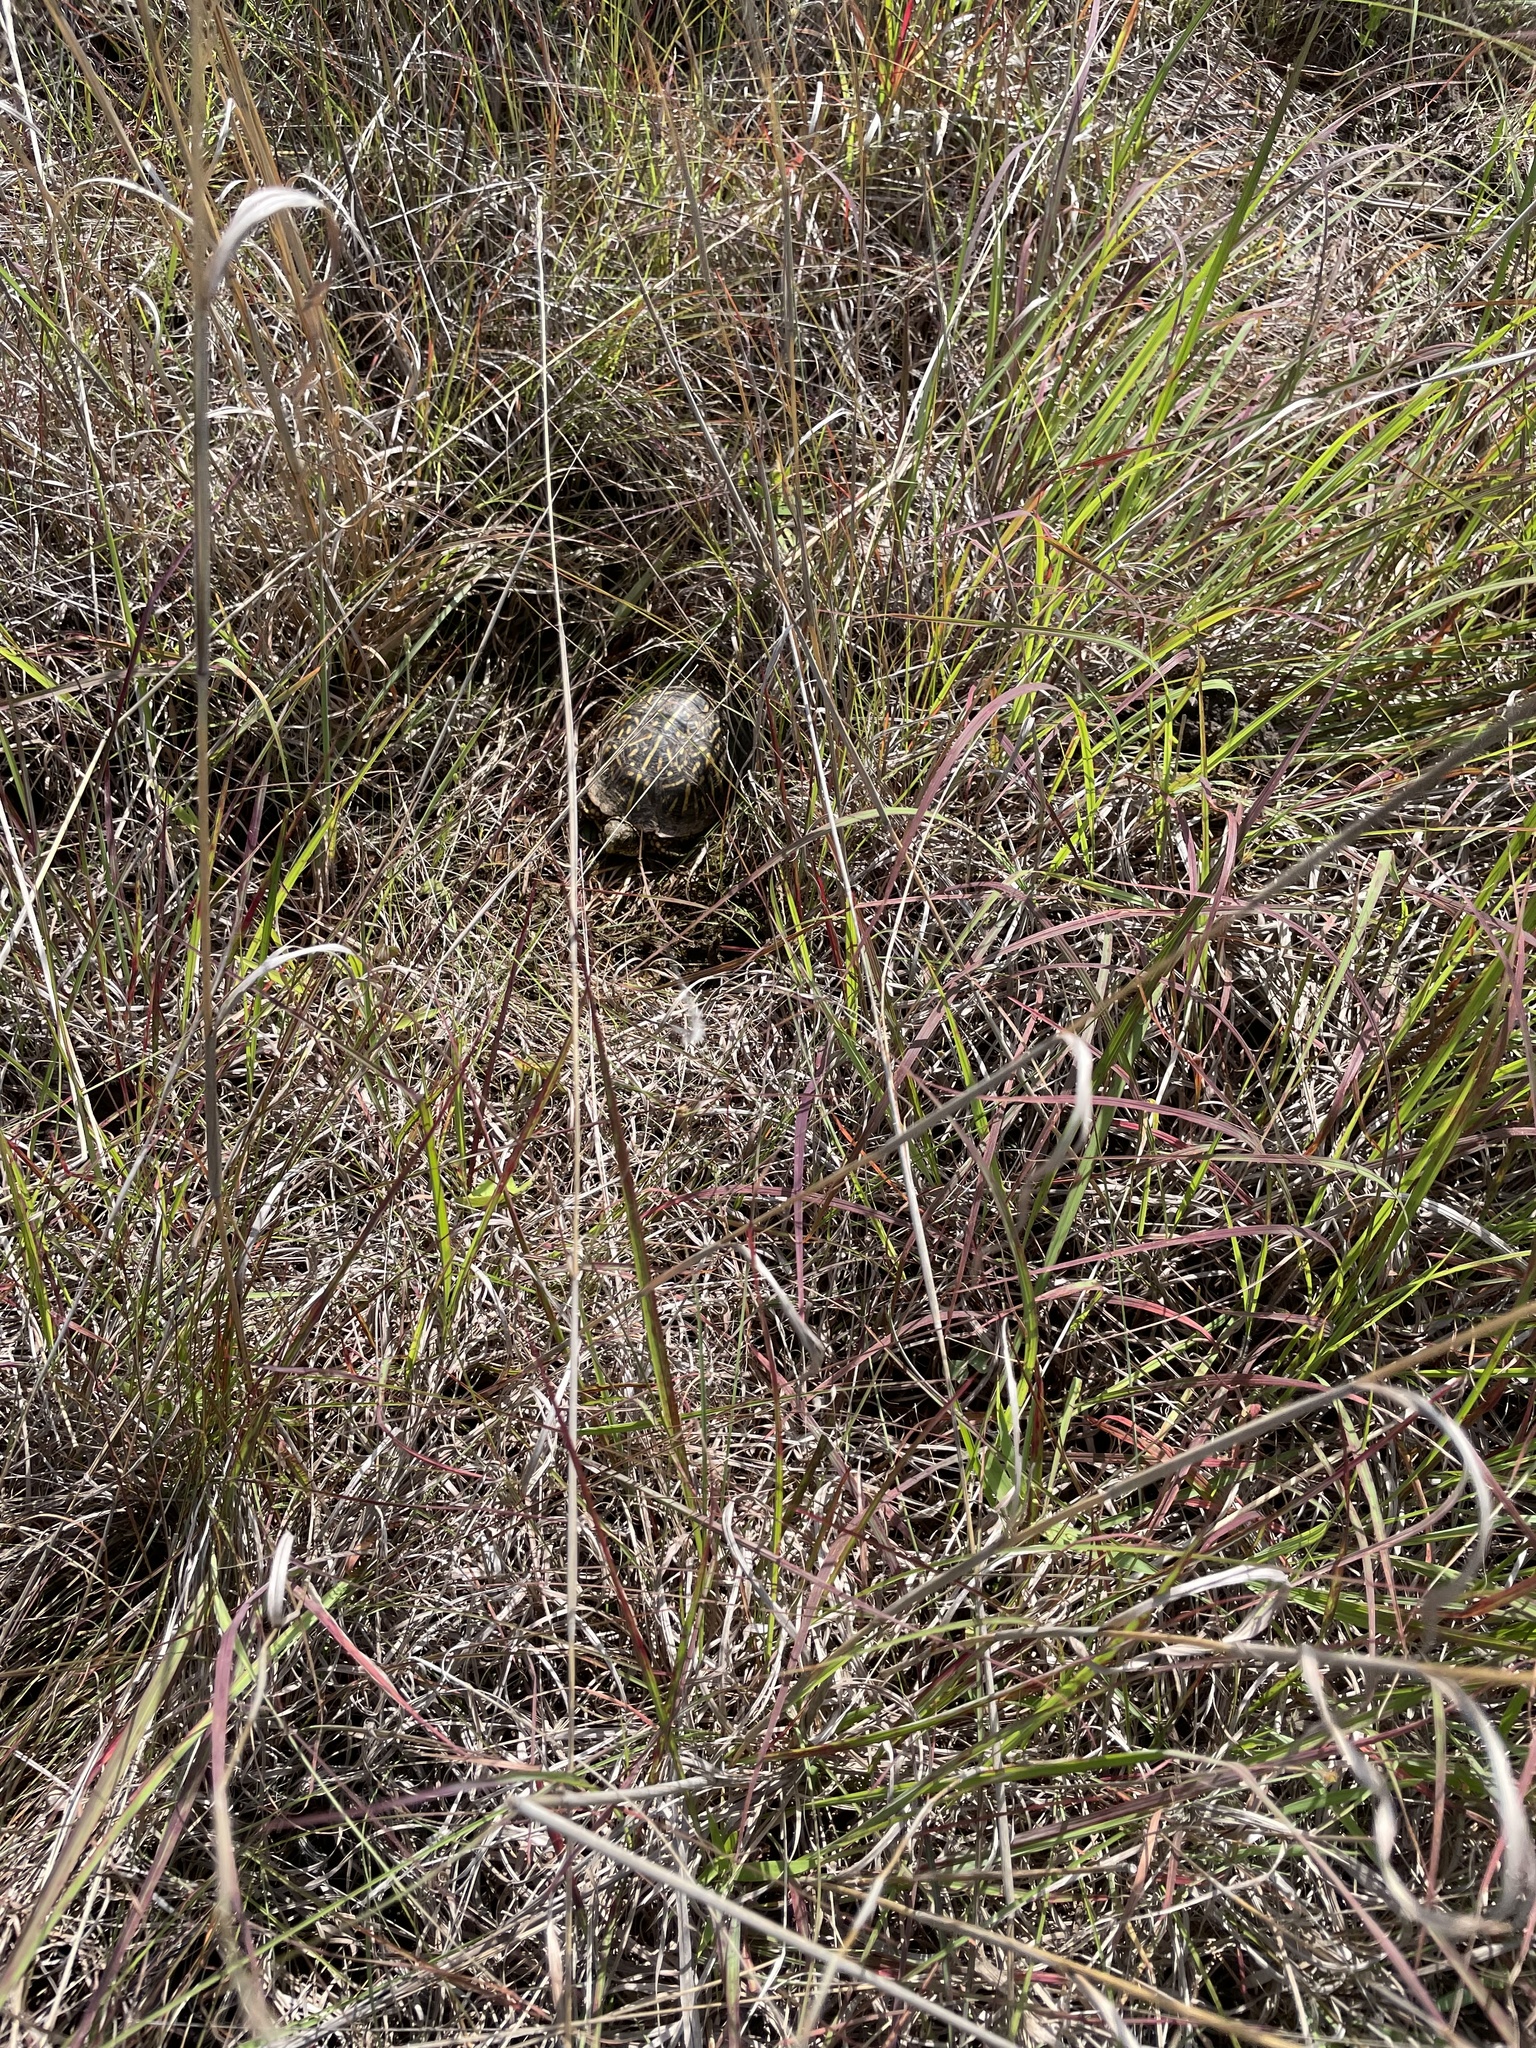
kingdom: Animalia
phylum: Chordata
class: Testudines
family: Emydidae
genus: Terrapene
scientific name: Terrapene ornata
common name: Western box turtle
